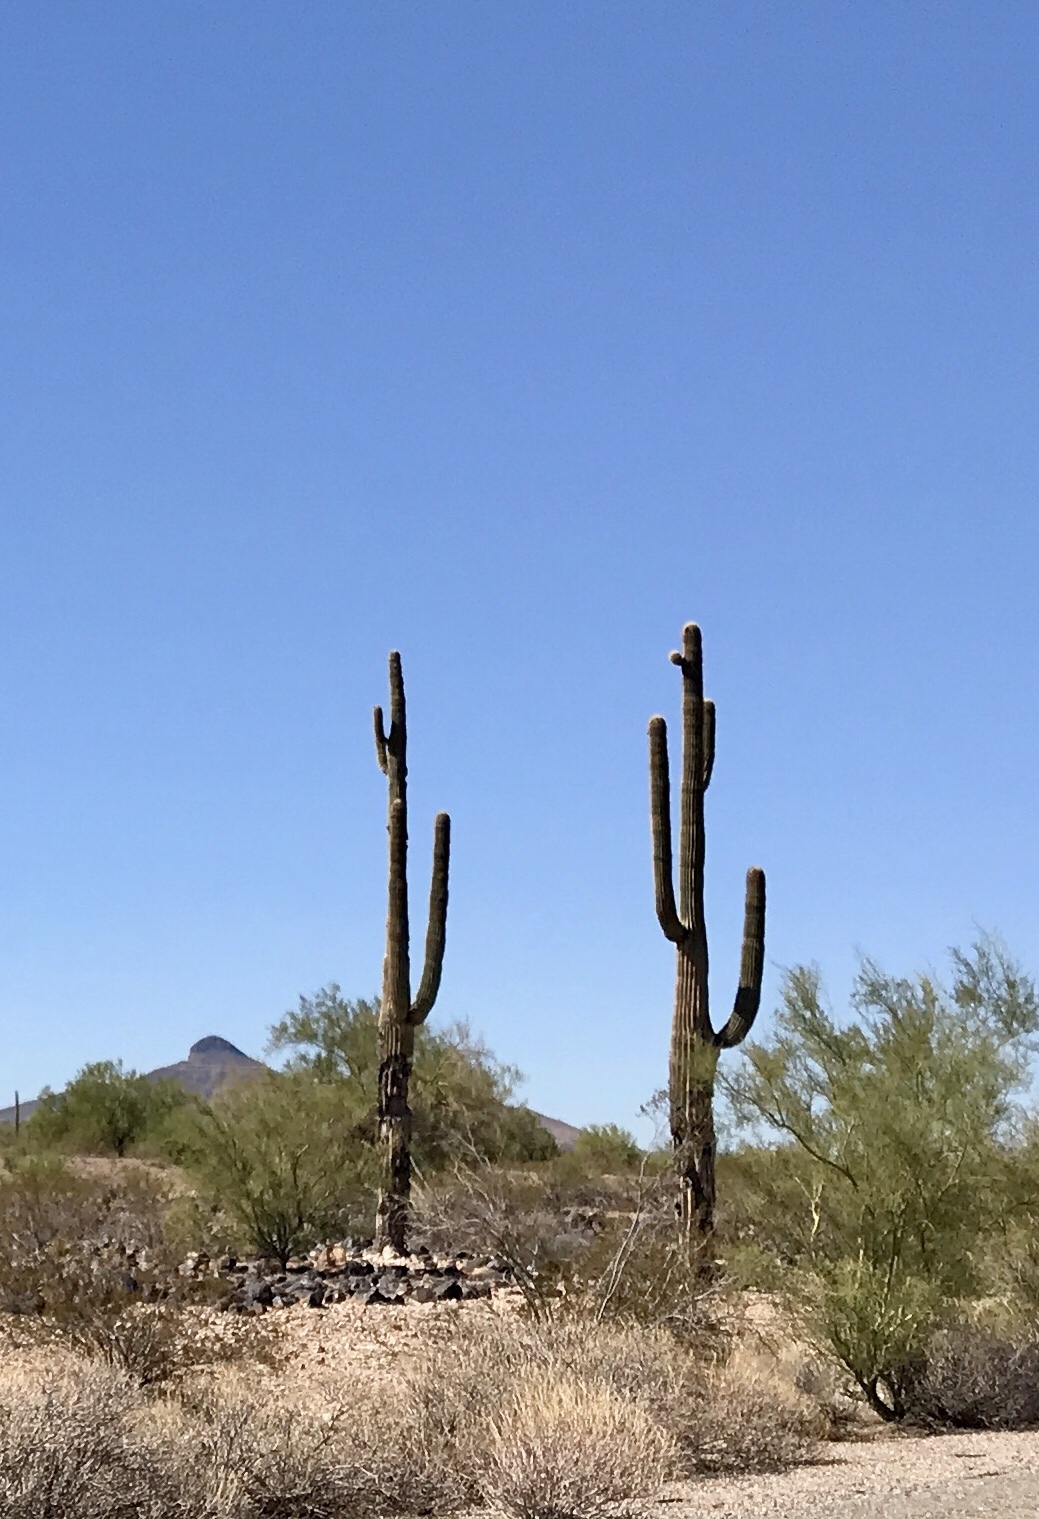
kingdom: Plantae
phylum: Tracheophyta
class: Magnoliopsida
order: Caryophyllales
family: Cactaceae
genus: Carnegiea
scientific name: Carnegiea gigantea
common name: Saguaro
